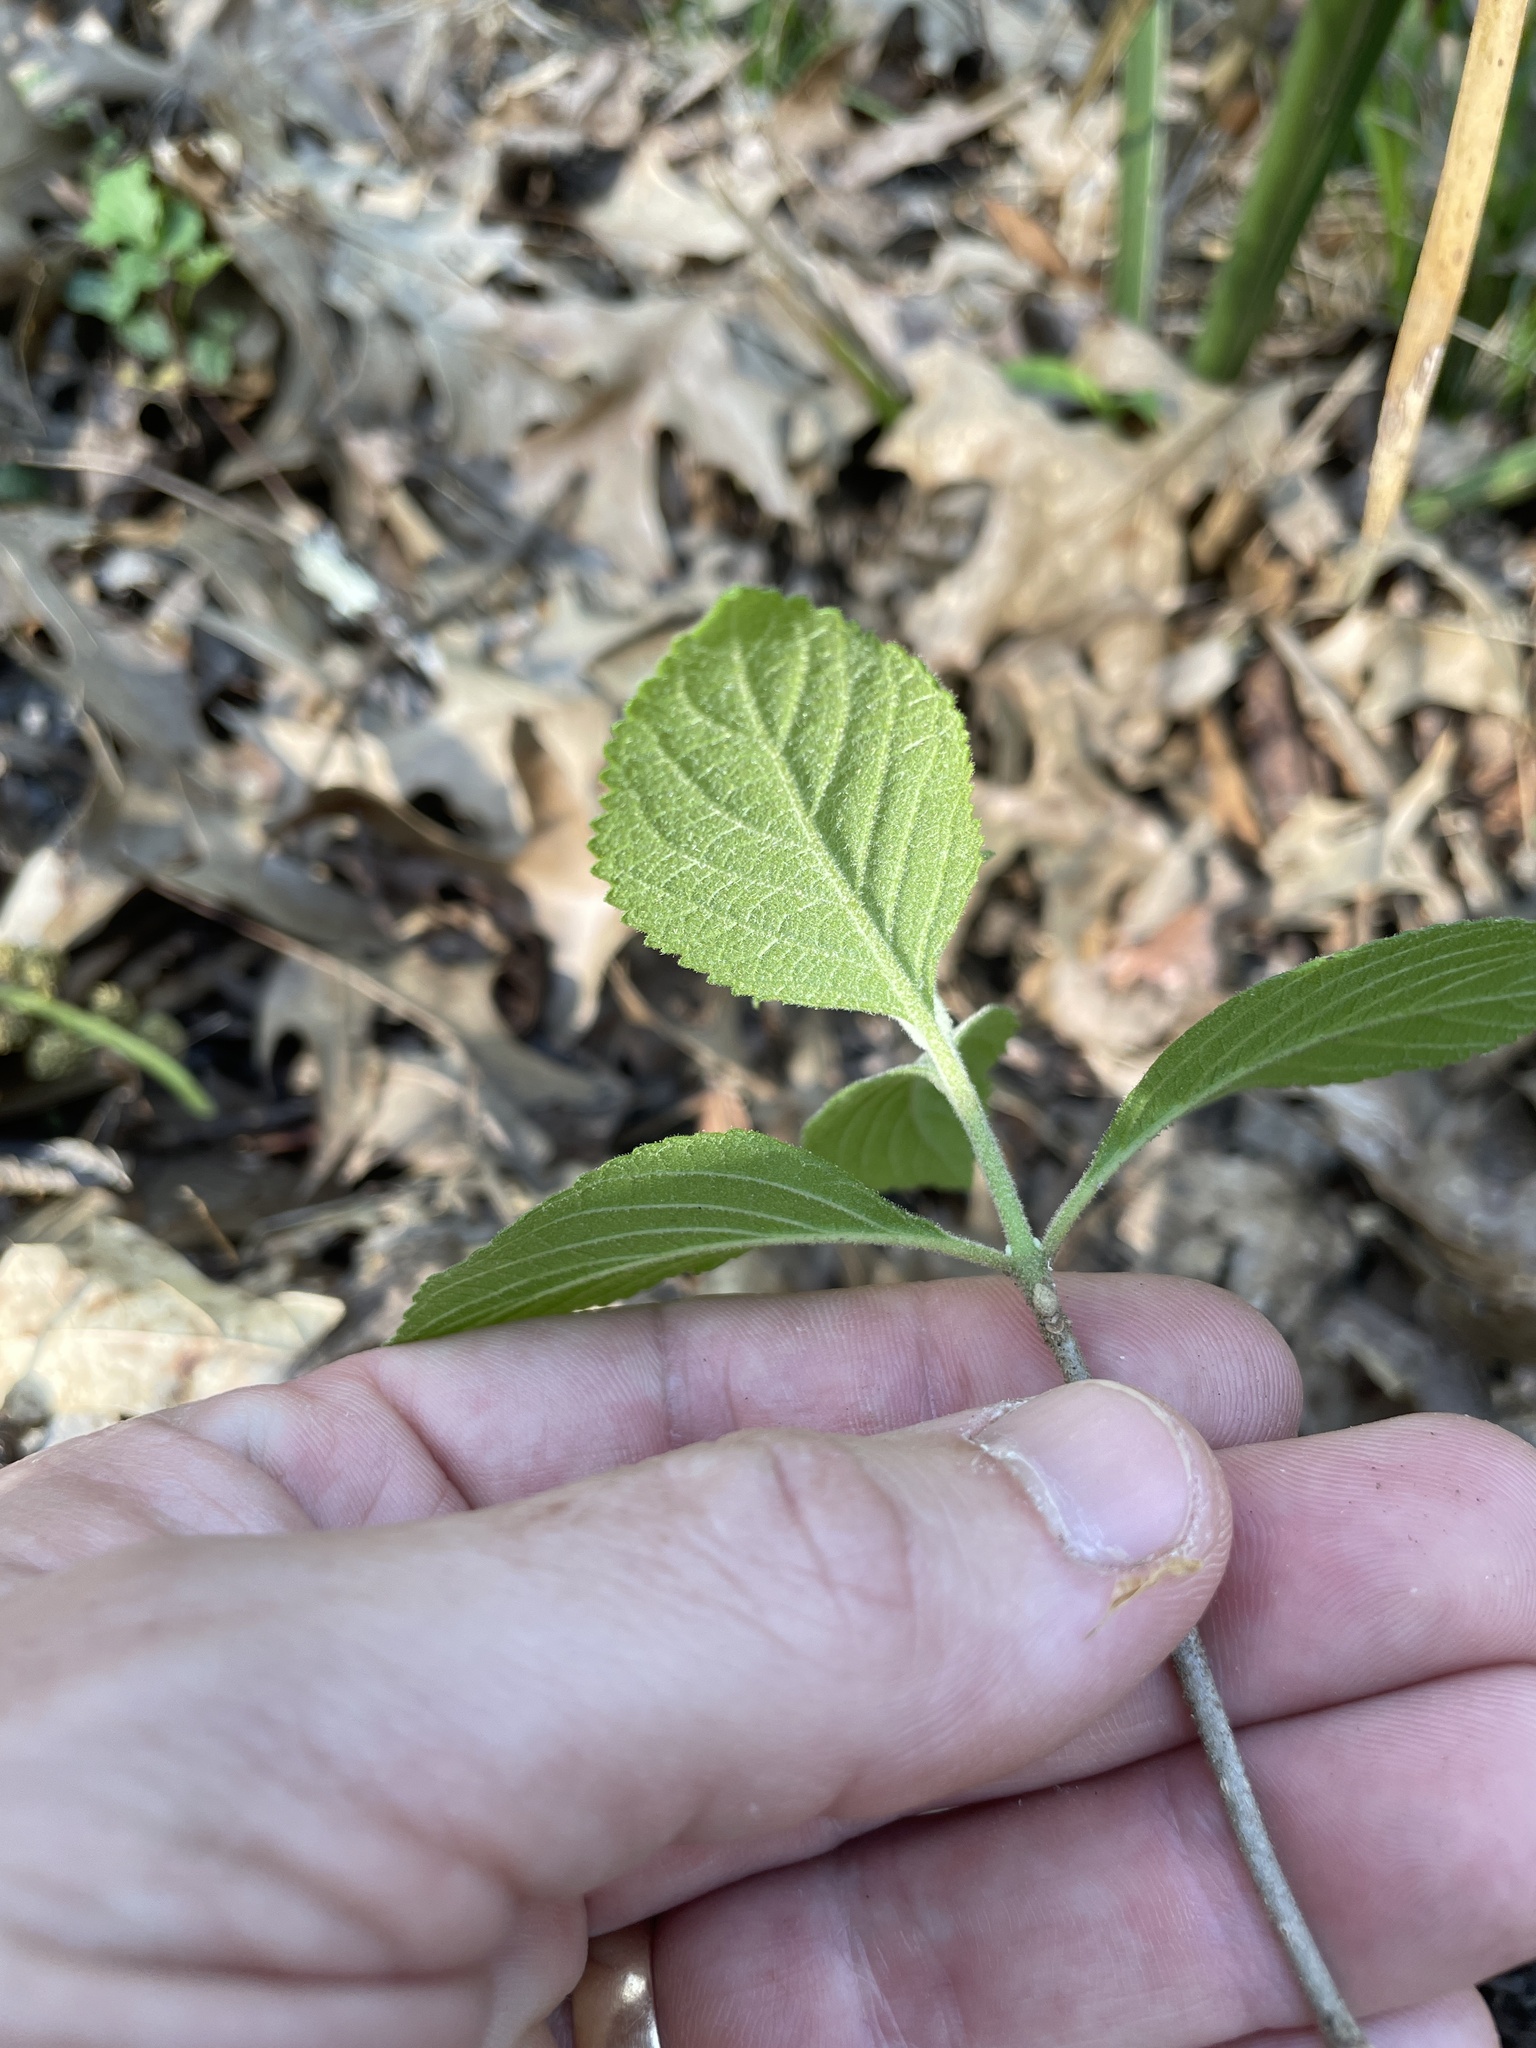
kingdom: Plantae
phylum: Tracheophyta
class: Magnoliopsida
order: Lamiales
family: Lamiaceae
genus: Callicarpa
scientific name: Callicarpa americana
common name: American beautyberry
